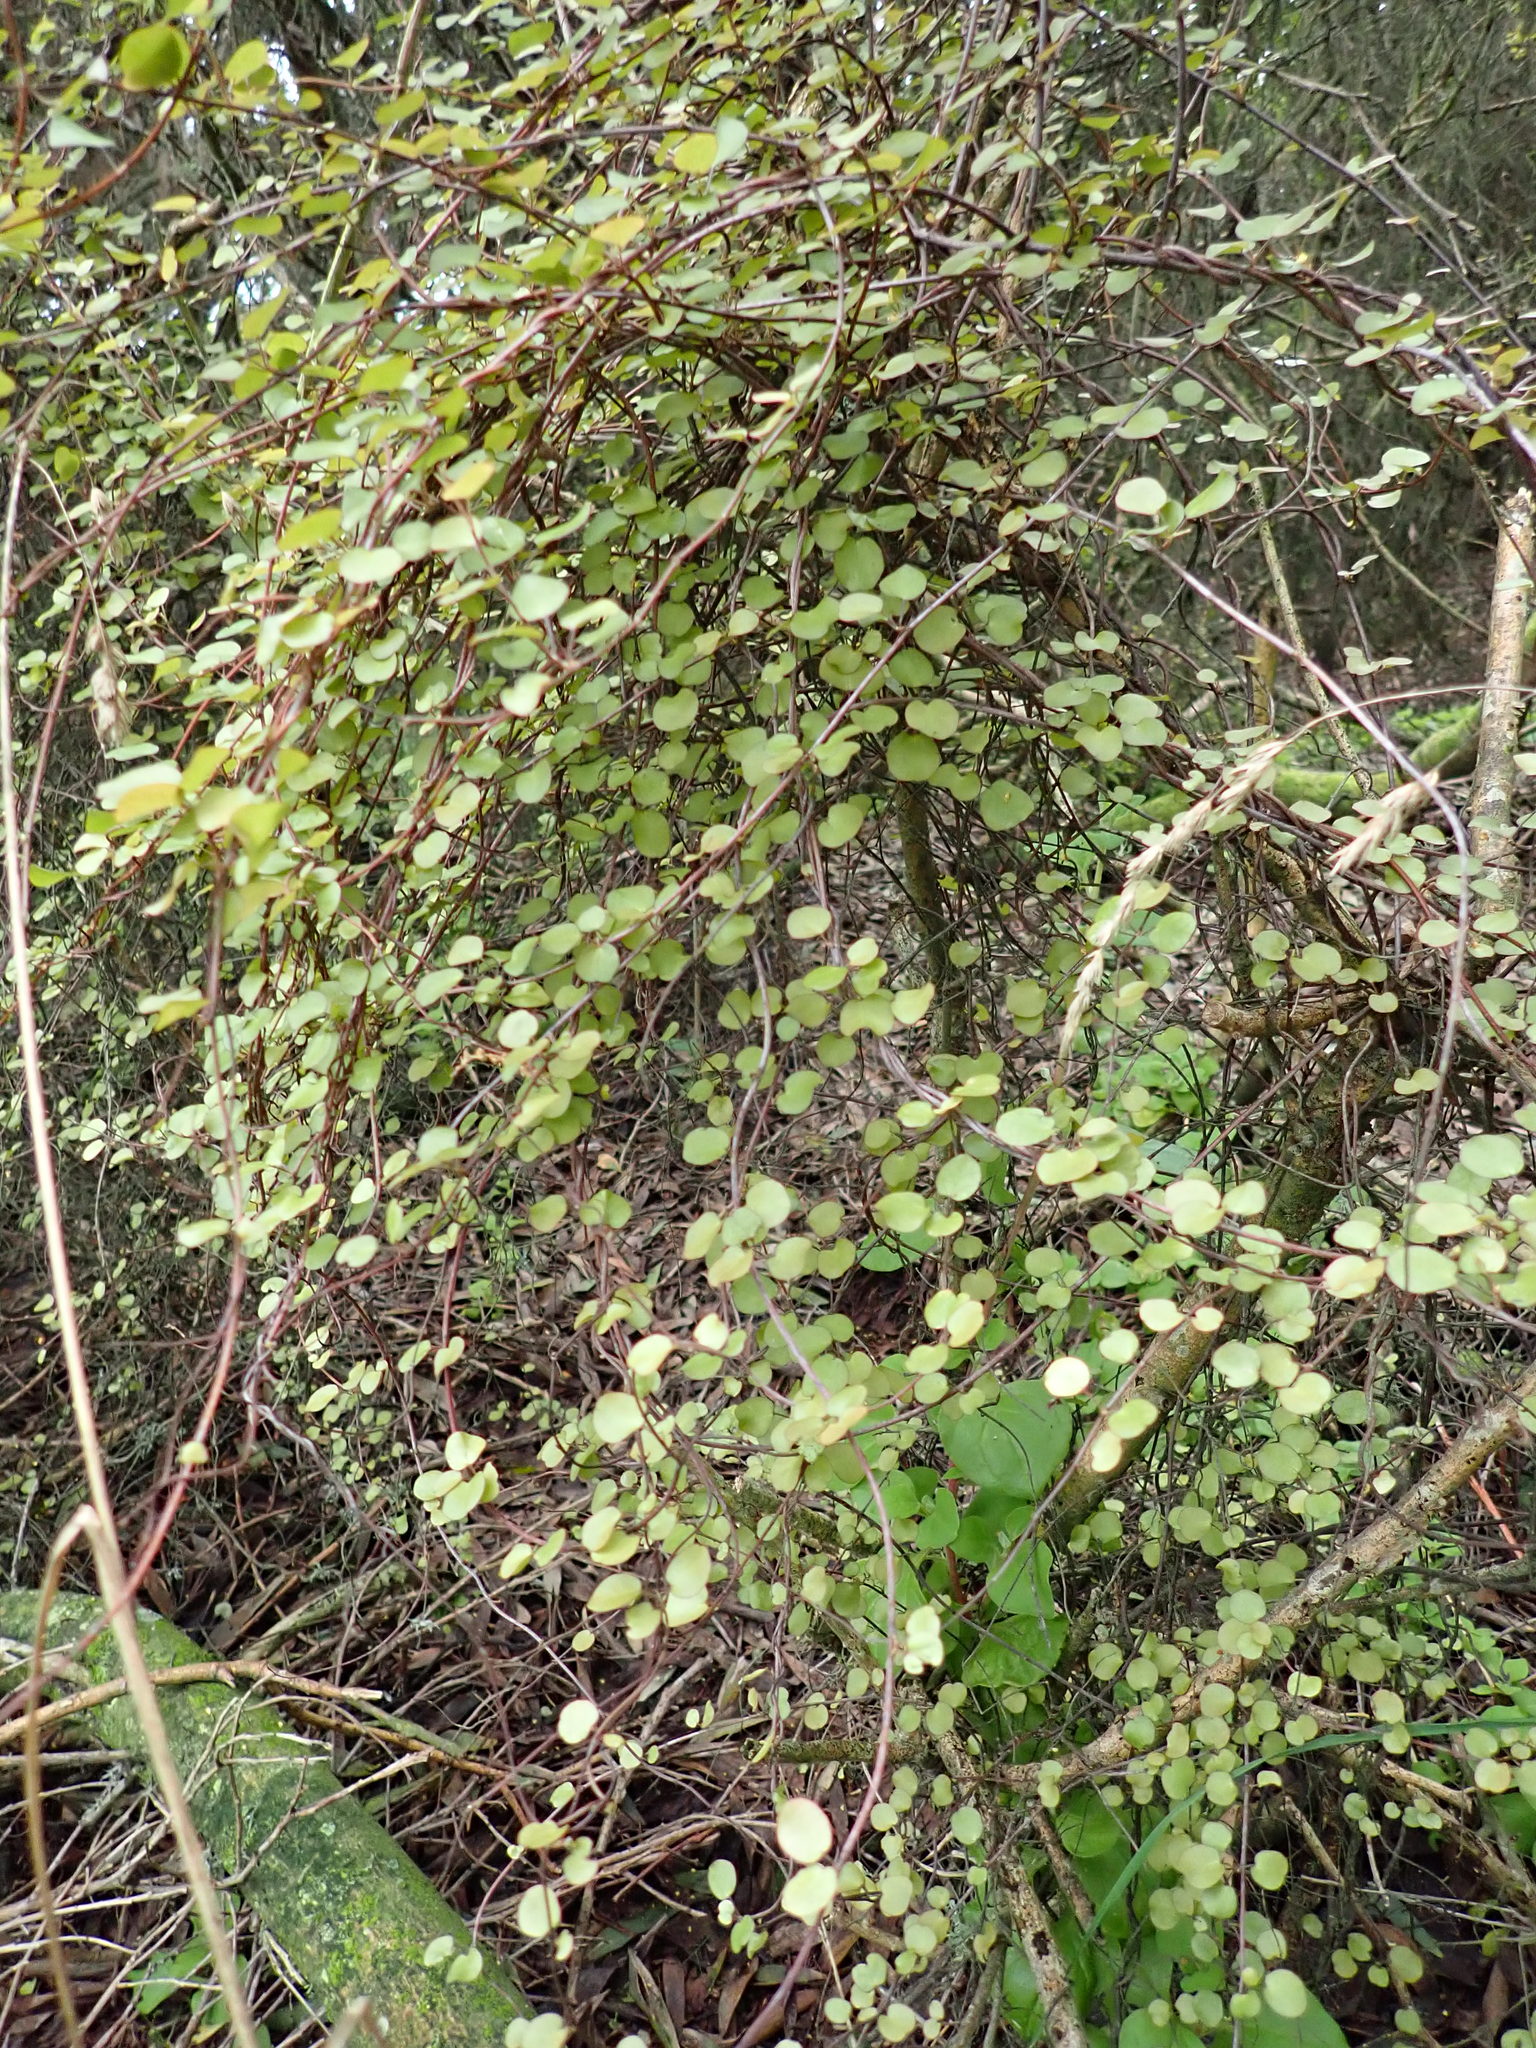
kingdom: Plantae
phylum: Tracheophyta
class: Magnoliopsida
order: Caryophyllales
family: Polygonaceae
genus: Muehlenbeckia
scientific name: Muehlenbeckia complexa
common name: Wireplant
